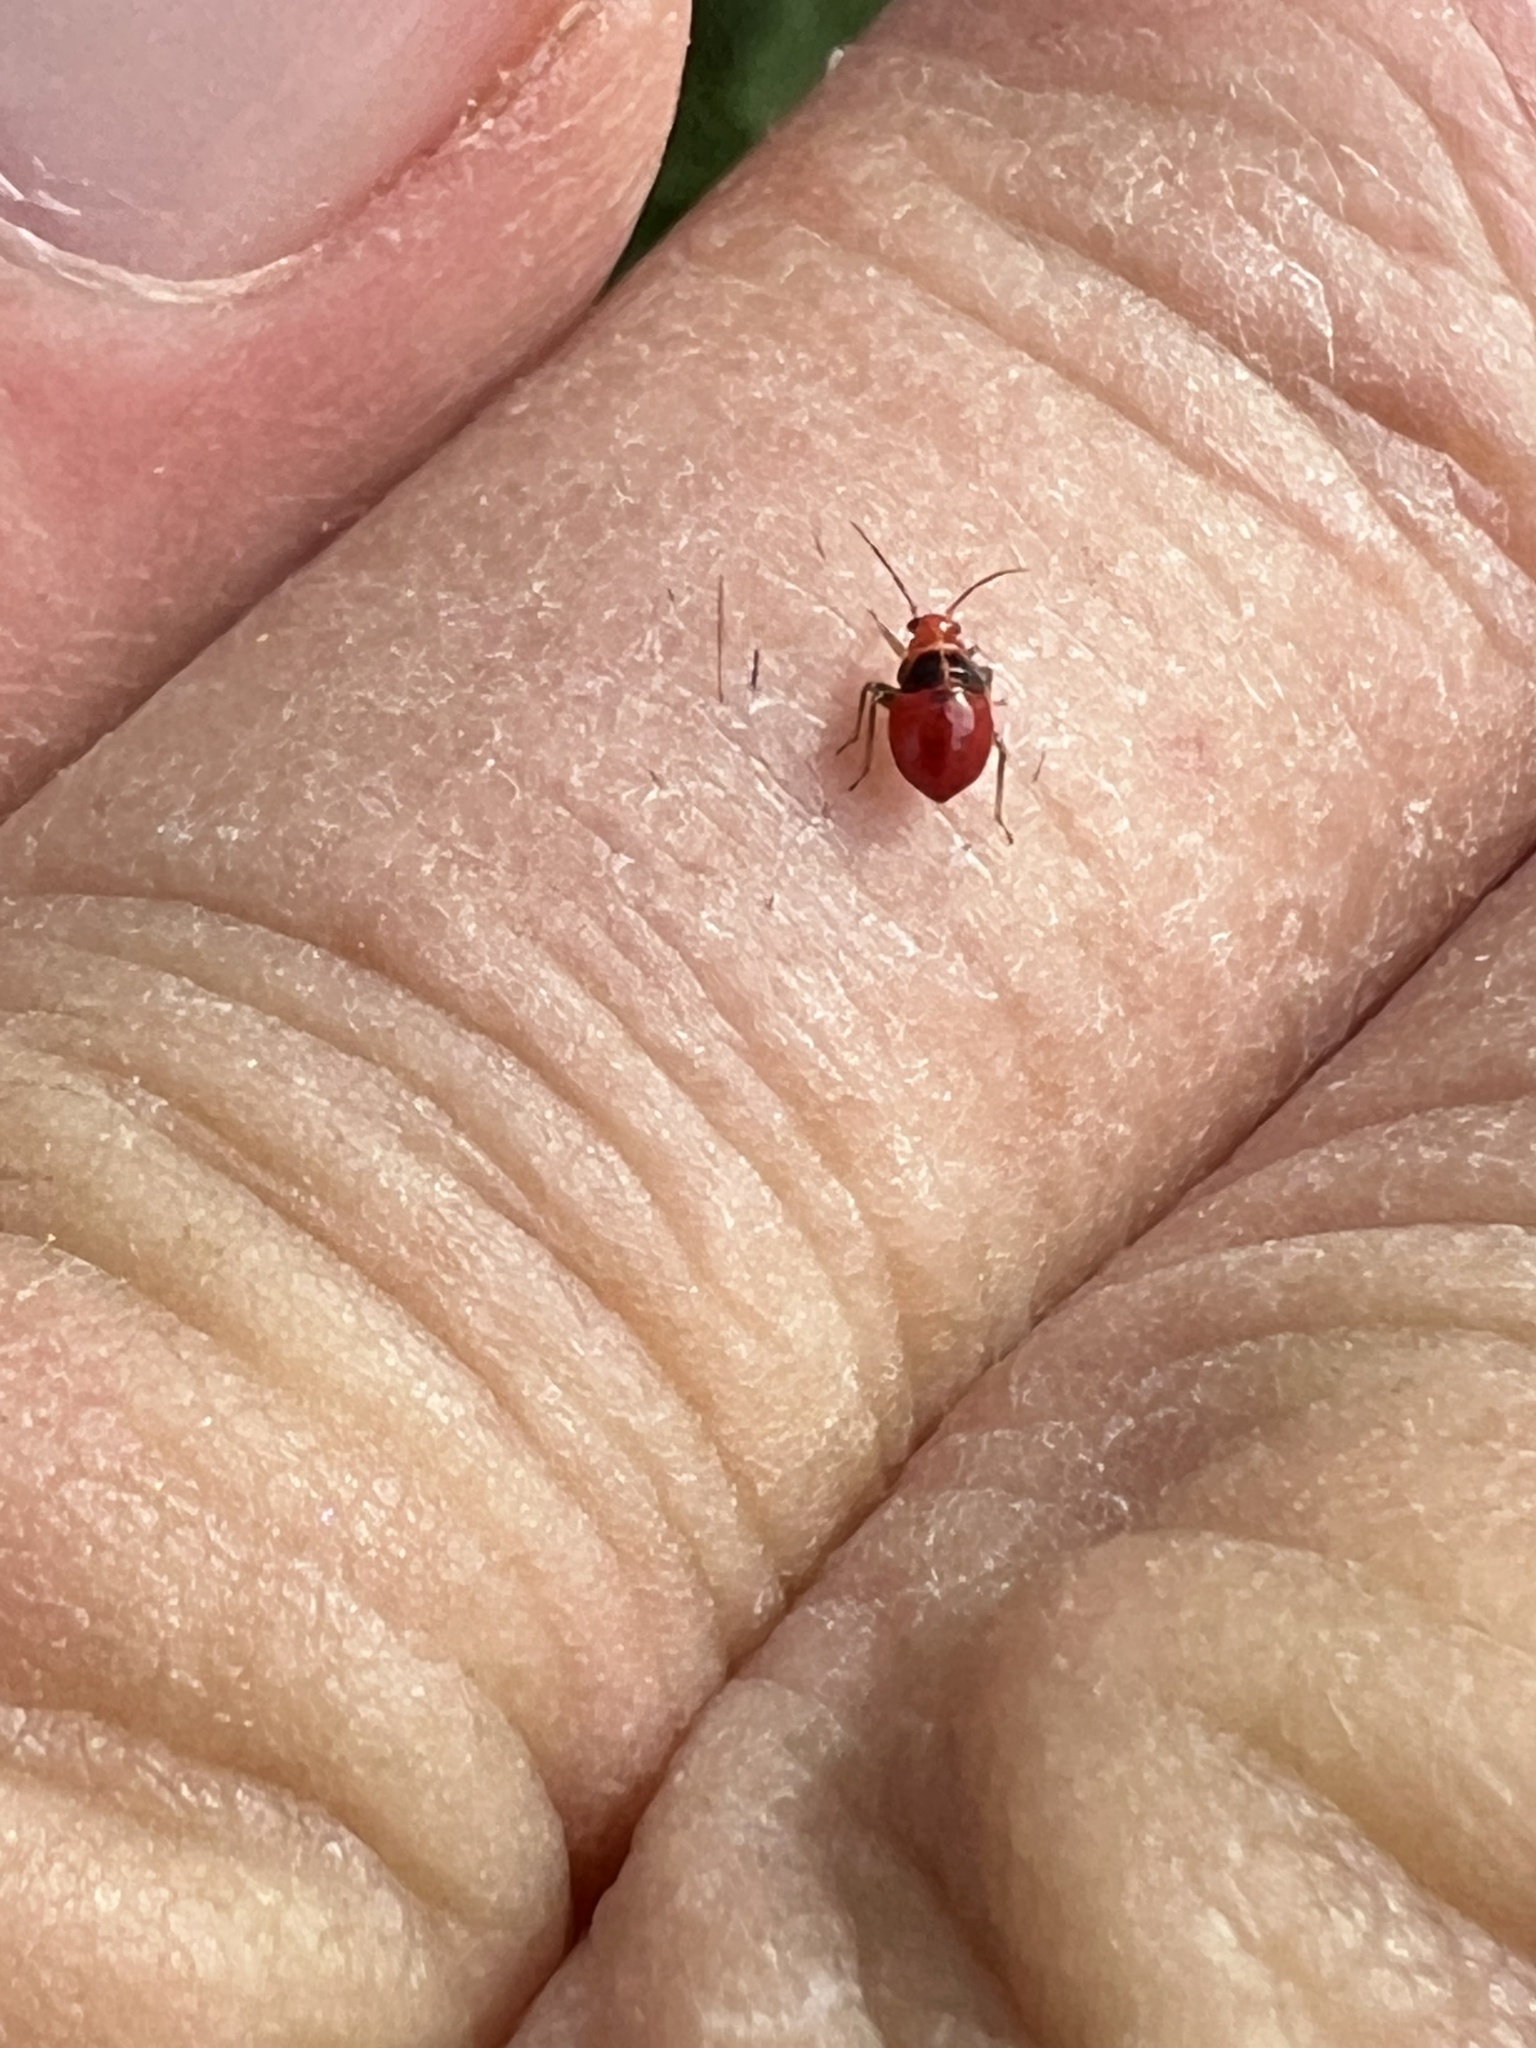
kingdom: Animalia
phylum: Arthropoda
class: Insecta
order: Hemiptera
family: Miridae
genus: Poecilocapsus
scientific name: Poecilocapsus lineatus
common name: Four-lined plant bug
